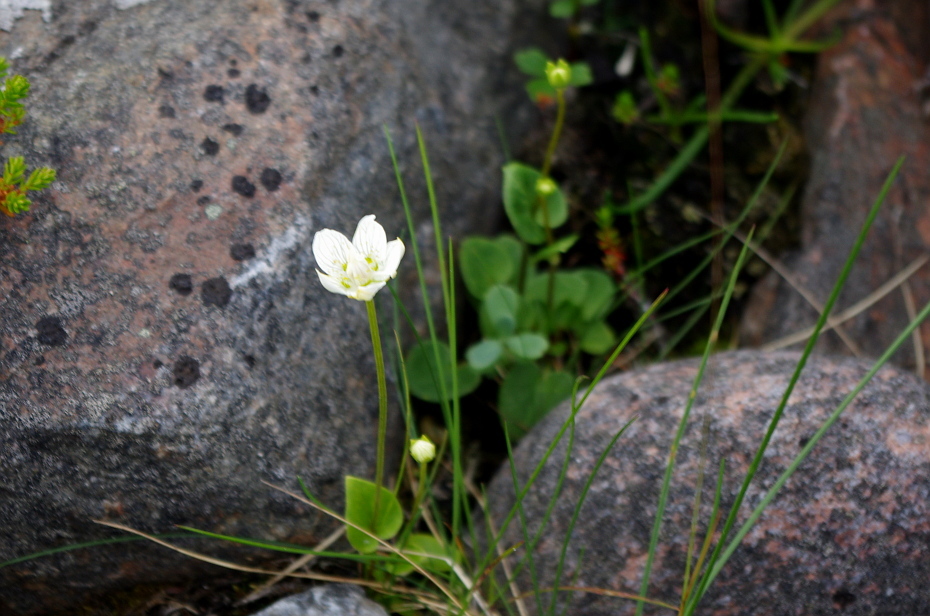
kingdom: Plantae
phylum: Tracheophyta
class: Magnoliopsida
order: Celastrales
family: Parnassiaceae
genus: Parnassia
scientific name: Parnassia palustris
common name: Grass-of-parnassus
